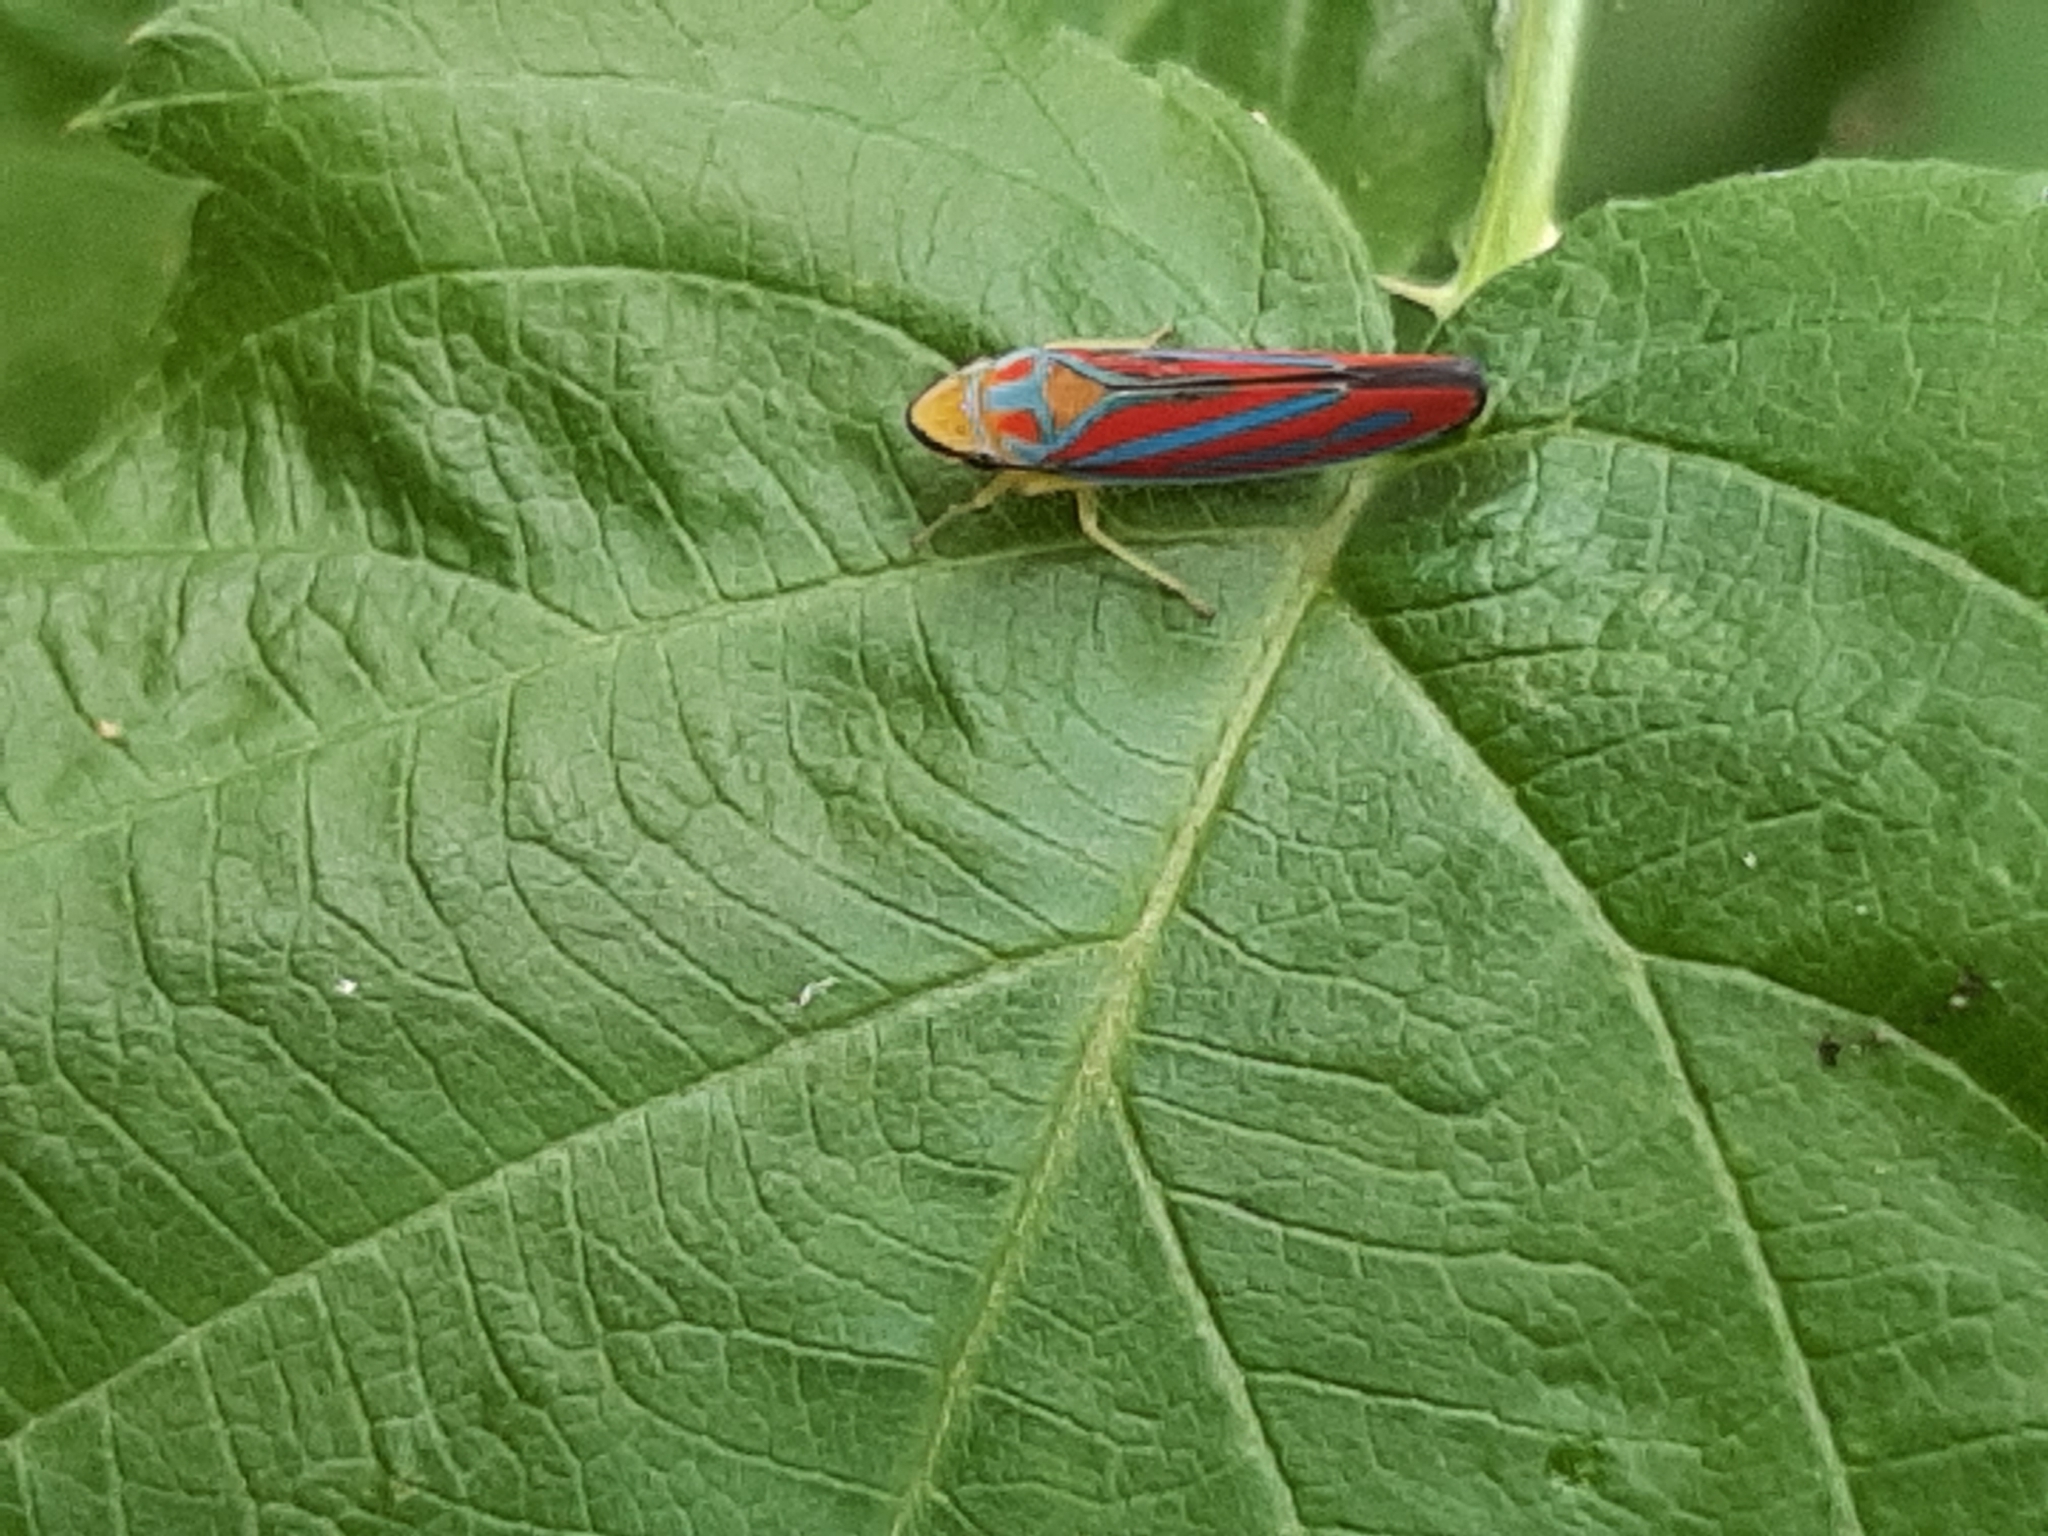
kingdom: Animalia
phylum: Arthropoda
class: Insecta
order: Hemiptera
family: Cicadellidae
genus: Graphocephala
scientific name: Graphocephala coccinea
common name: Candy-striped leafhopper
